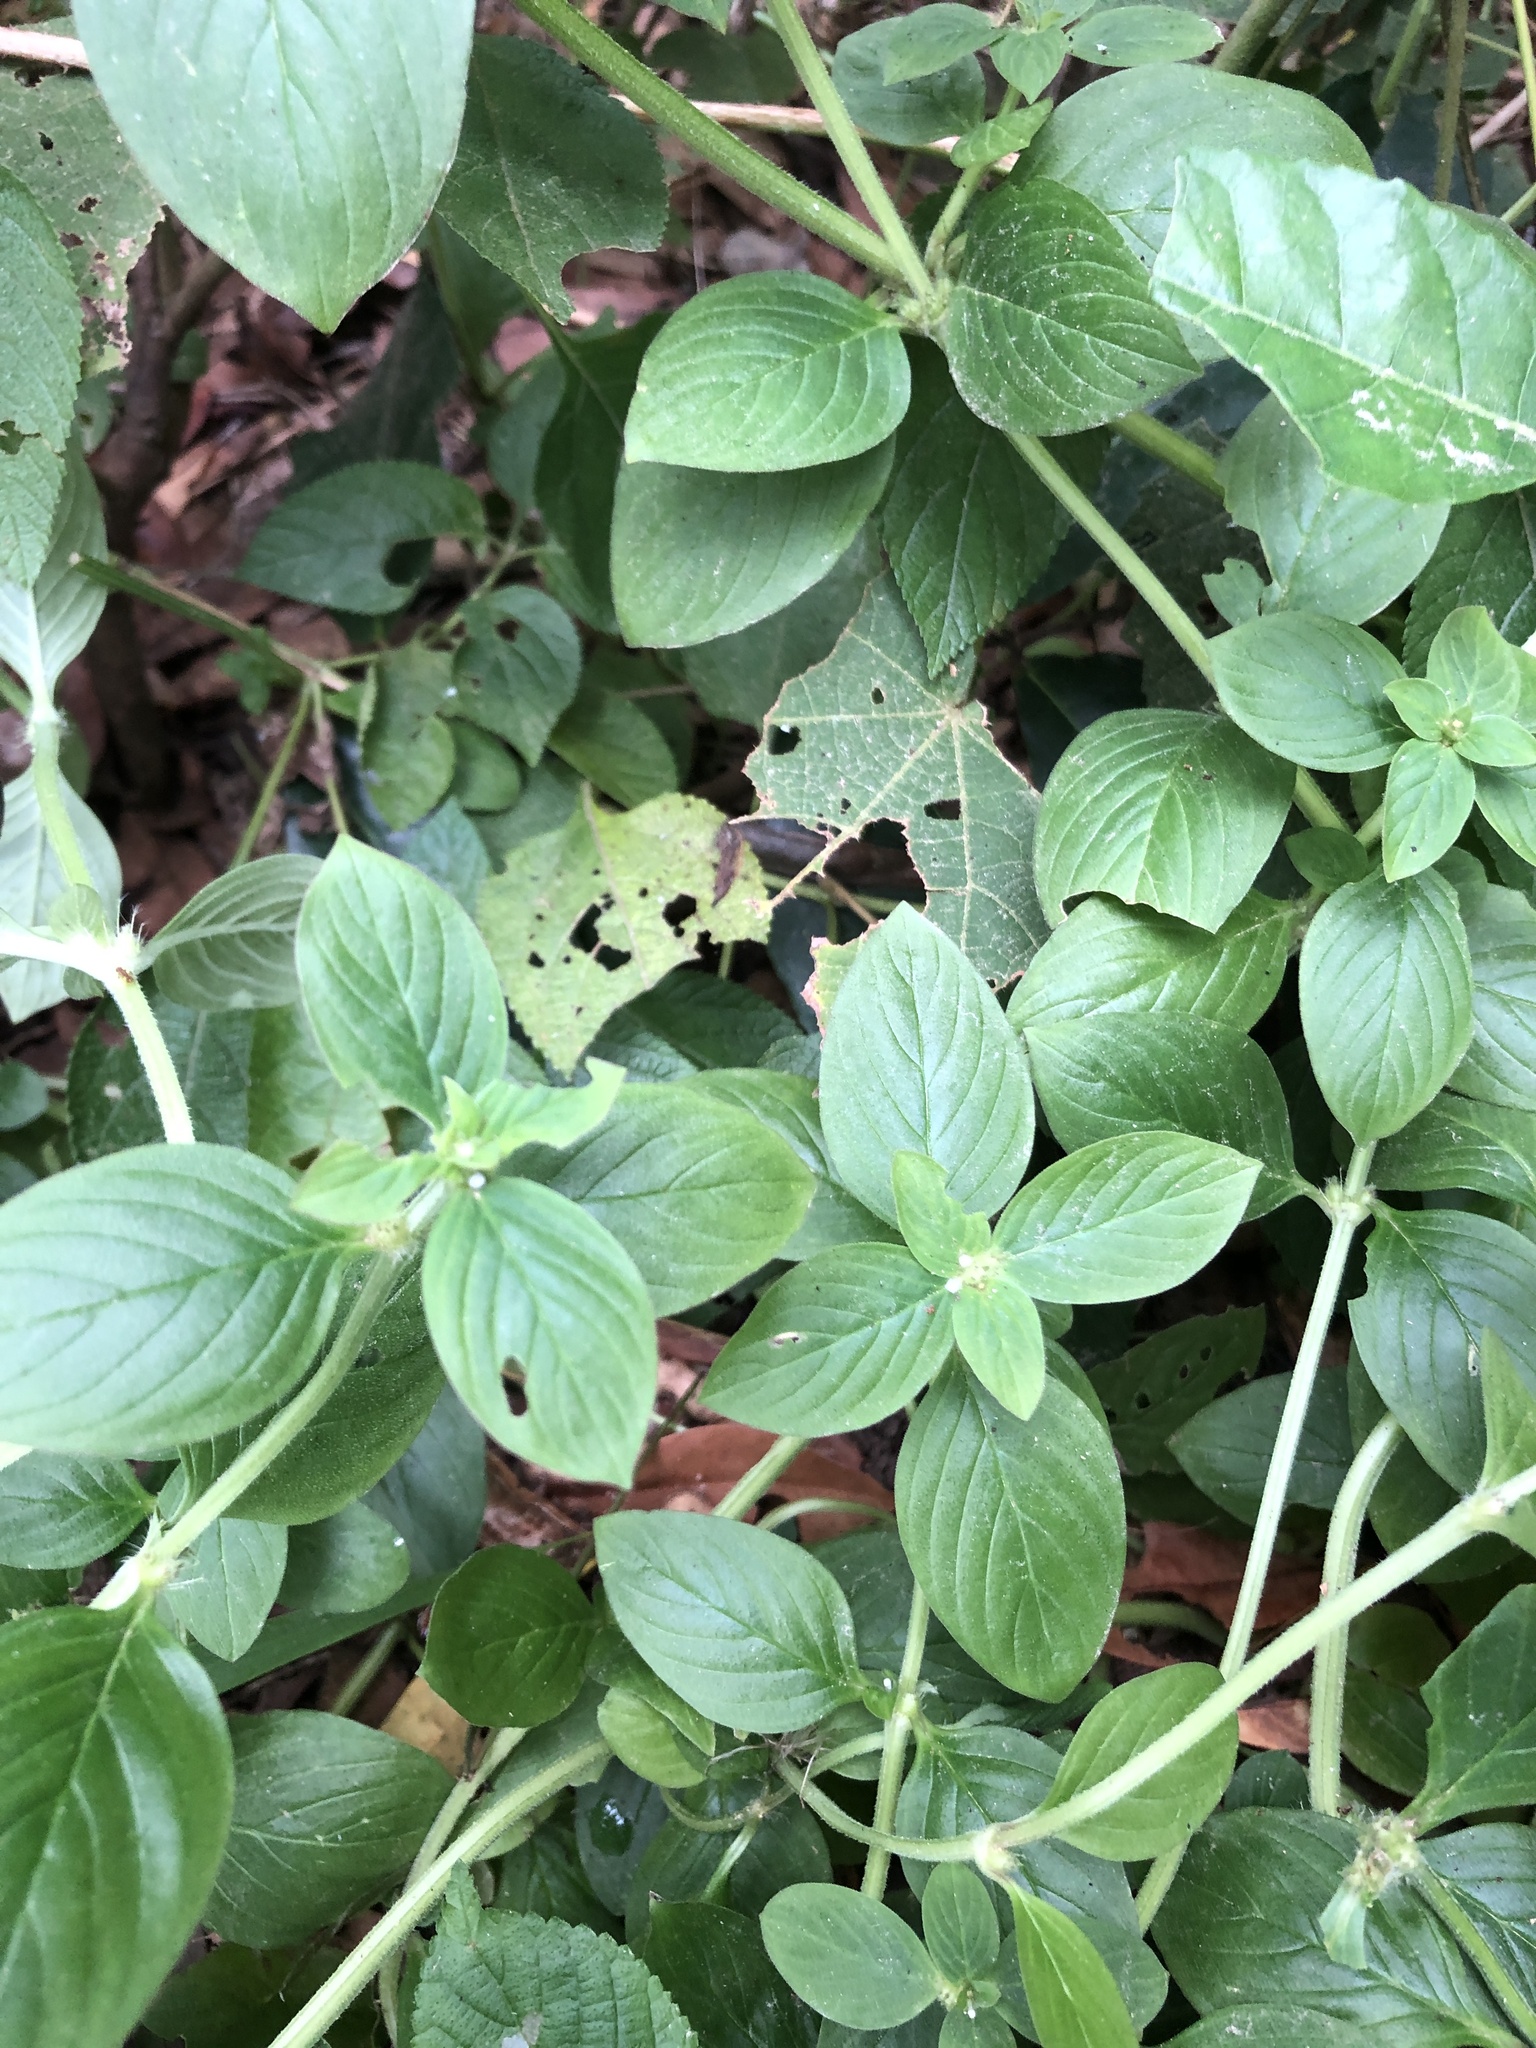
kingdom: Plantae
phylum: Tracheophyta
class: Magnoliopsida
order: Gentianales
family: Rubiaceae
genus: Spermacoce
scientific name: Spermacoce latifolia
